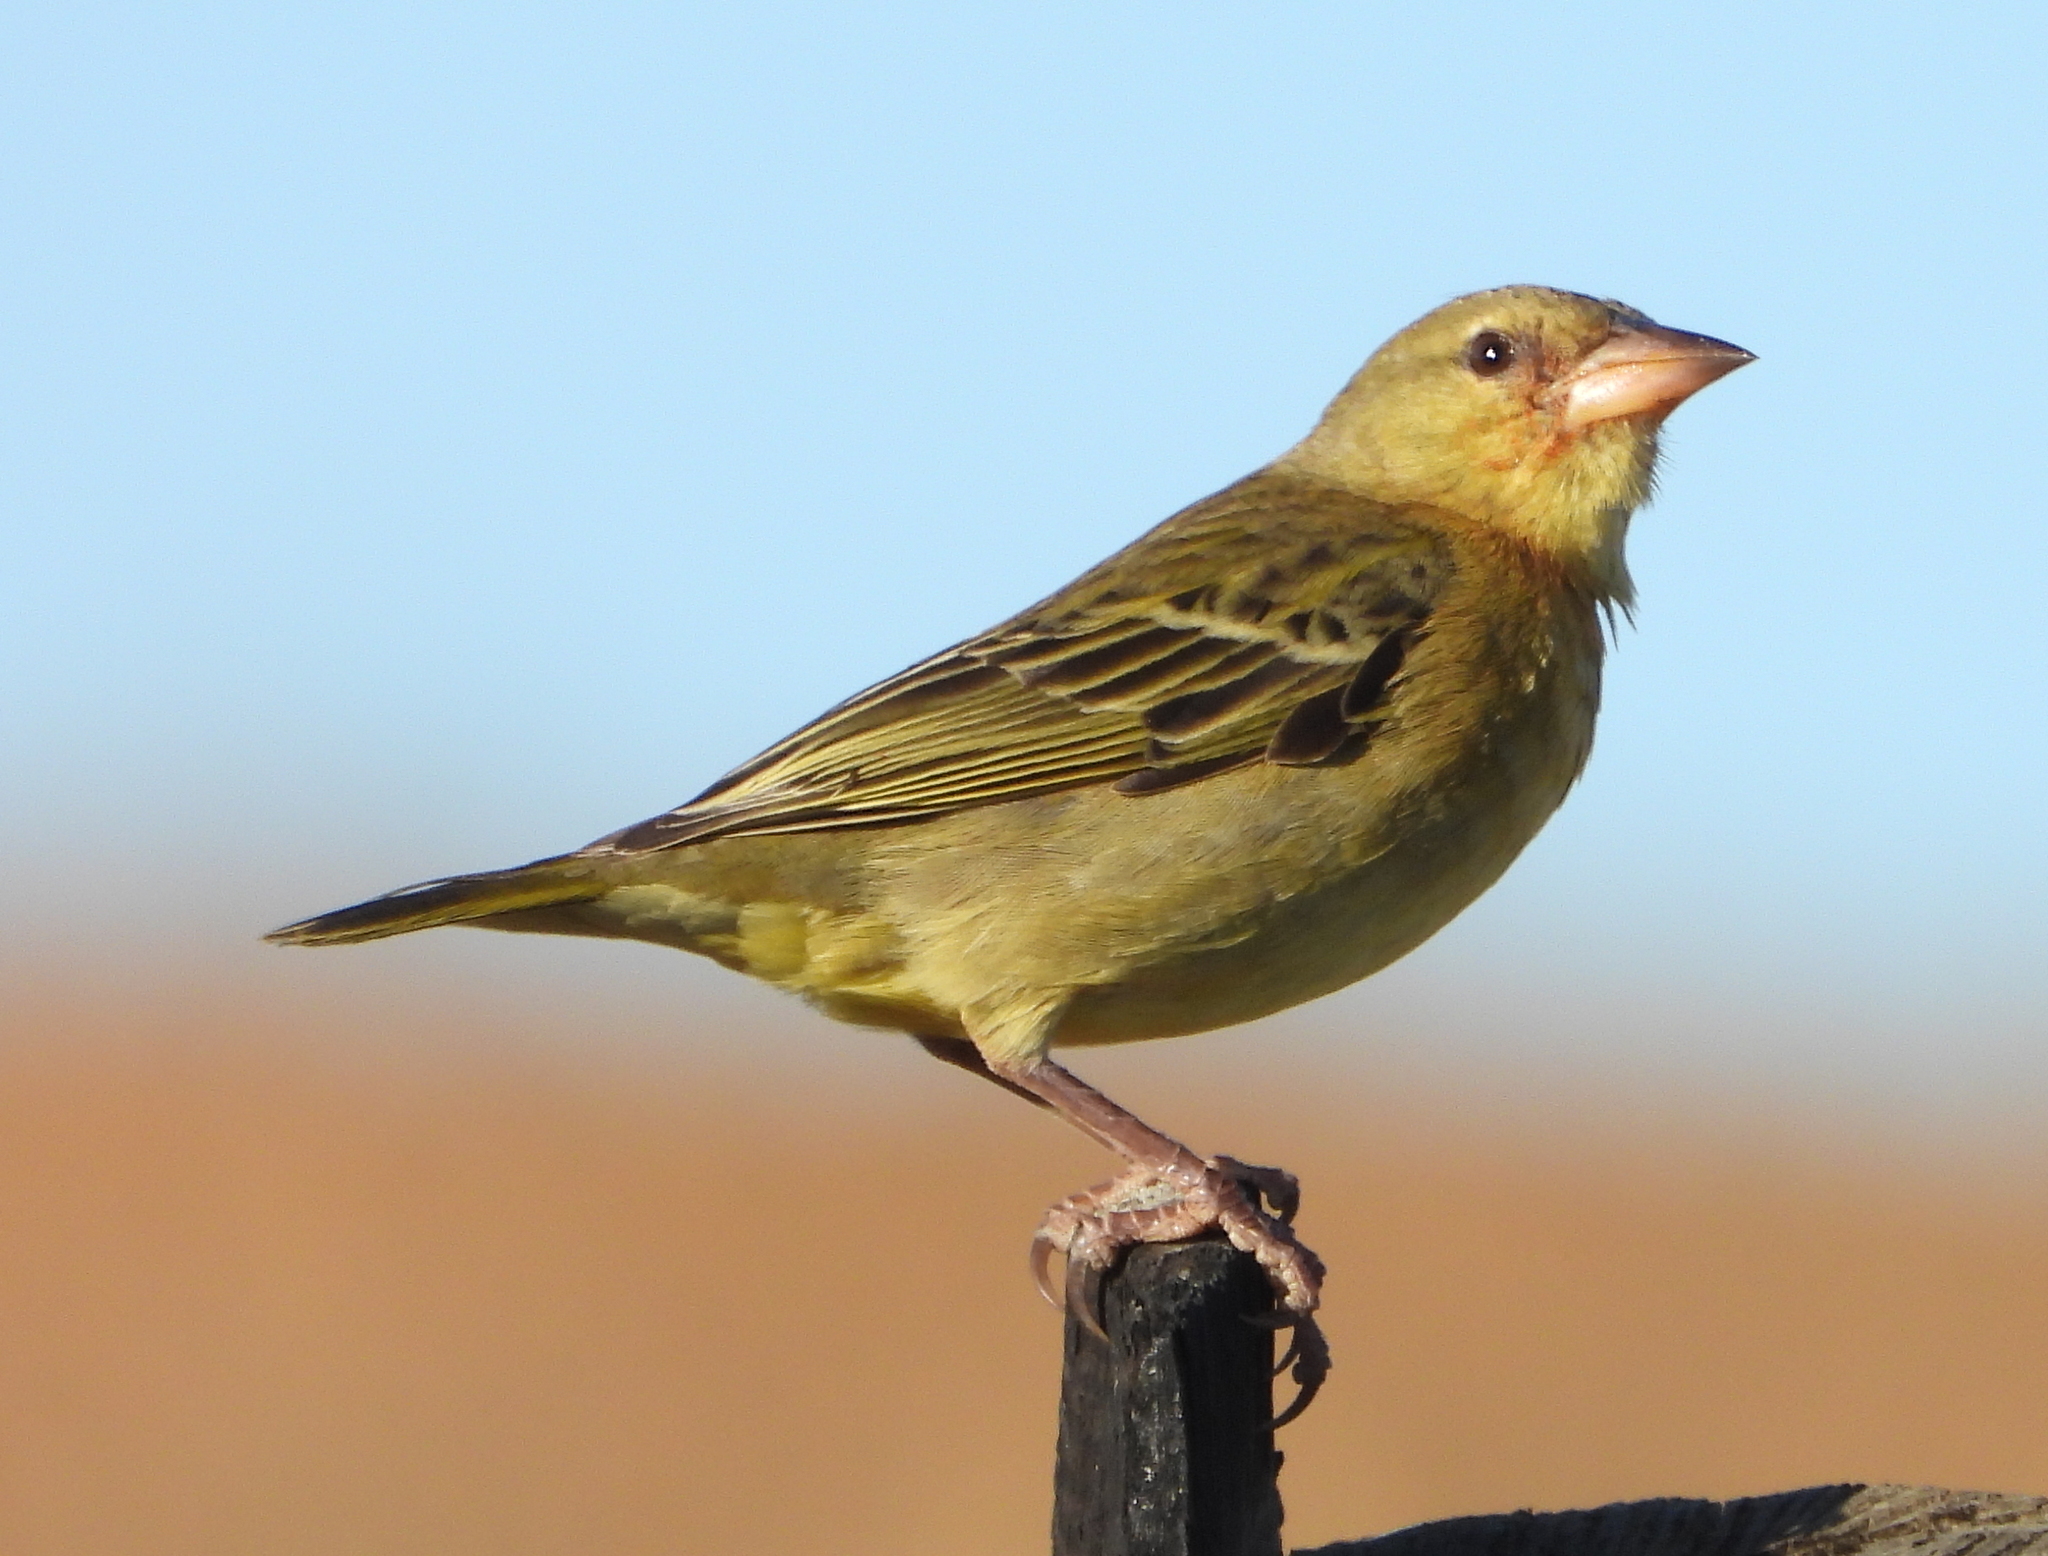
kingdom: Animalia
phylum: Chordata
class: Aves
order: Passeriformes
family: Ploceidae
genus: Ploceus
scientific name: Ploceus capensis
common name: Cape weaver
